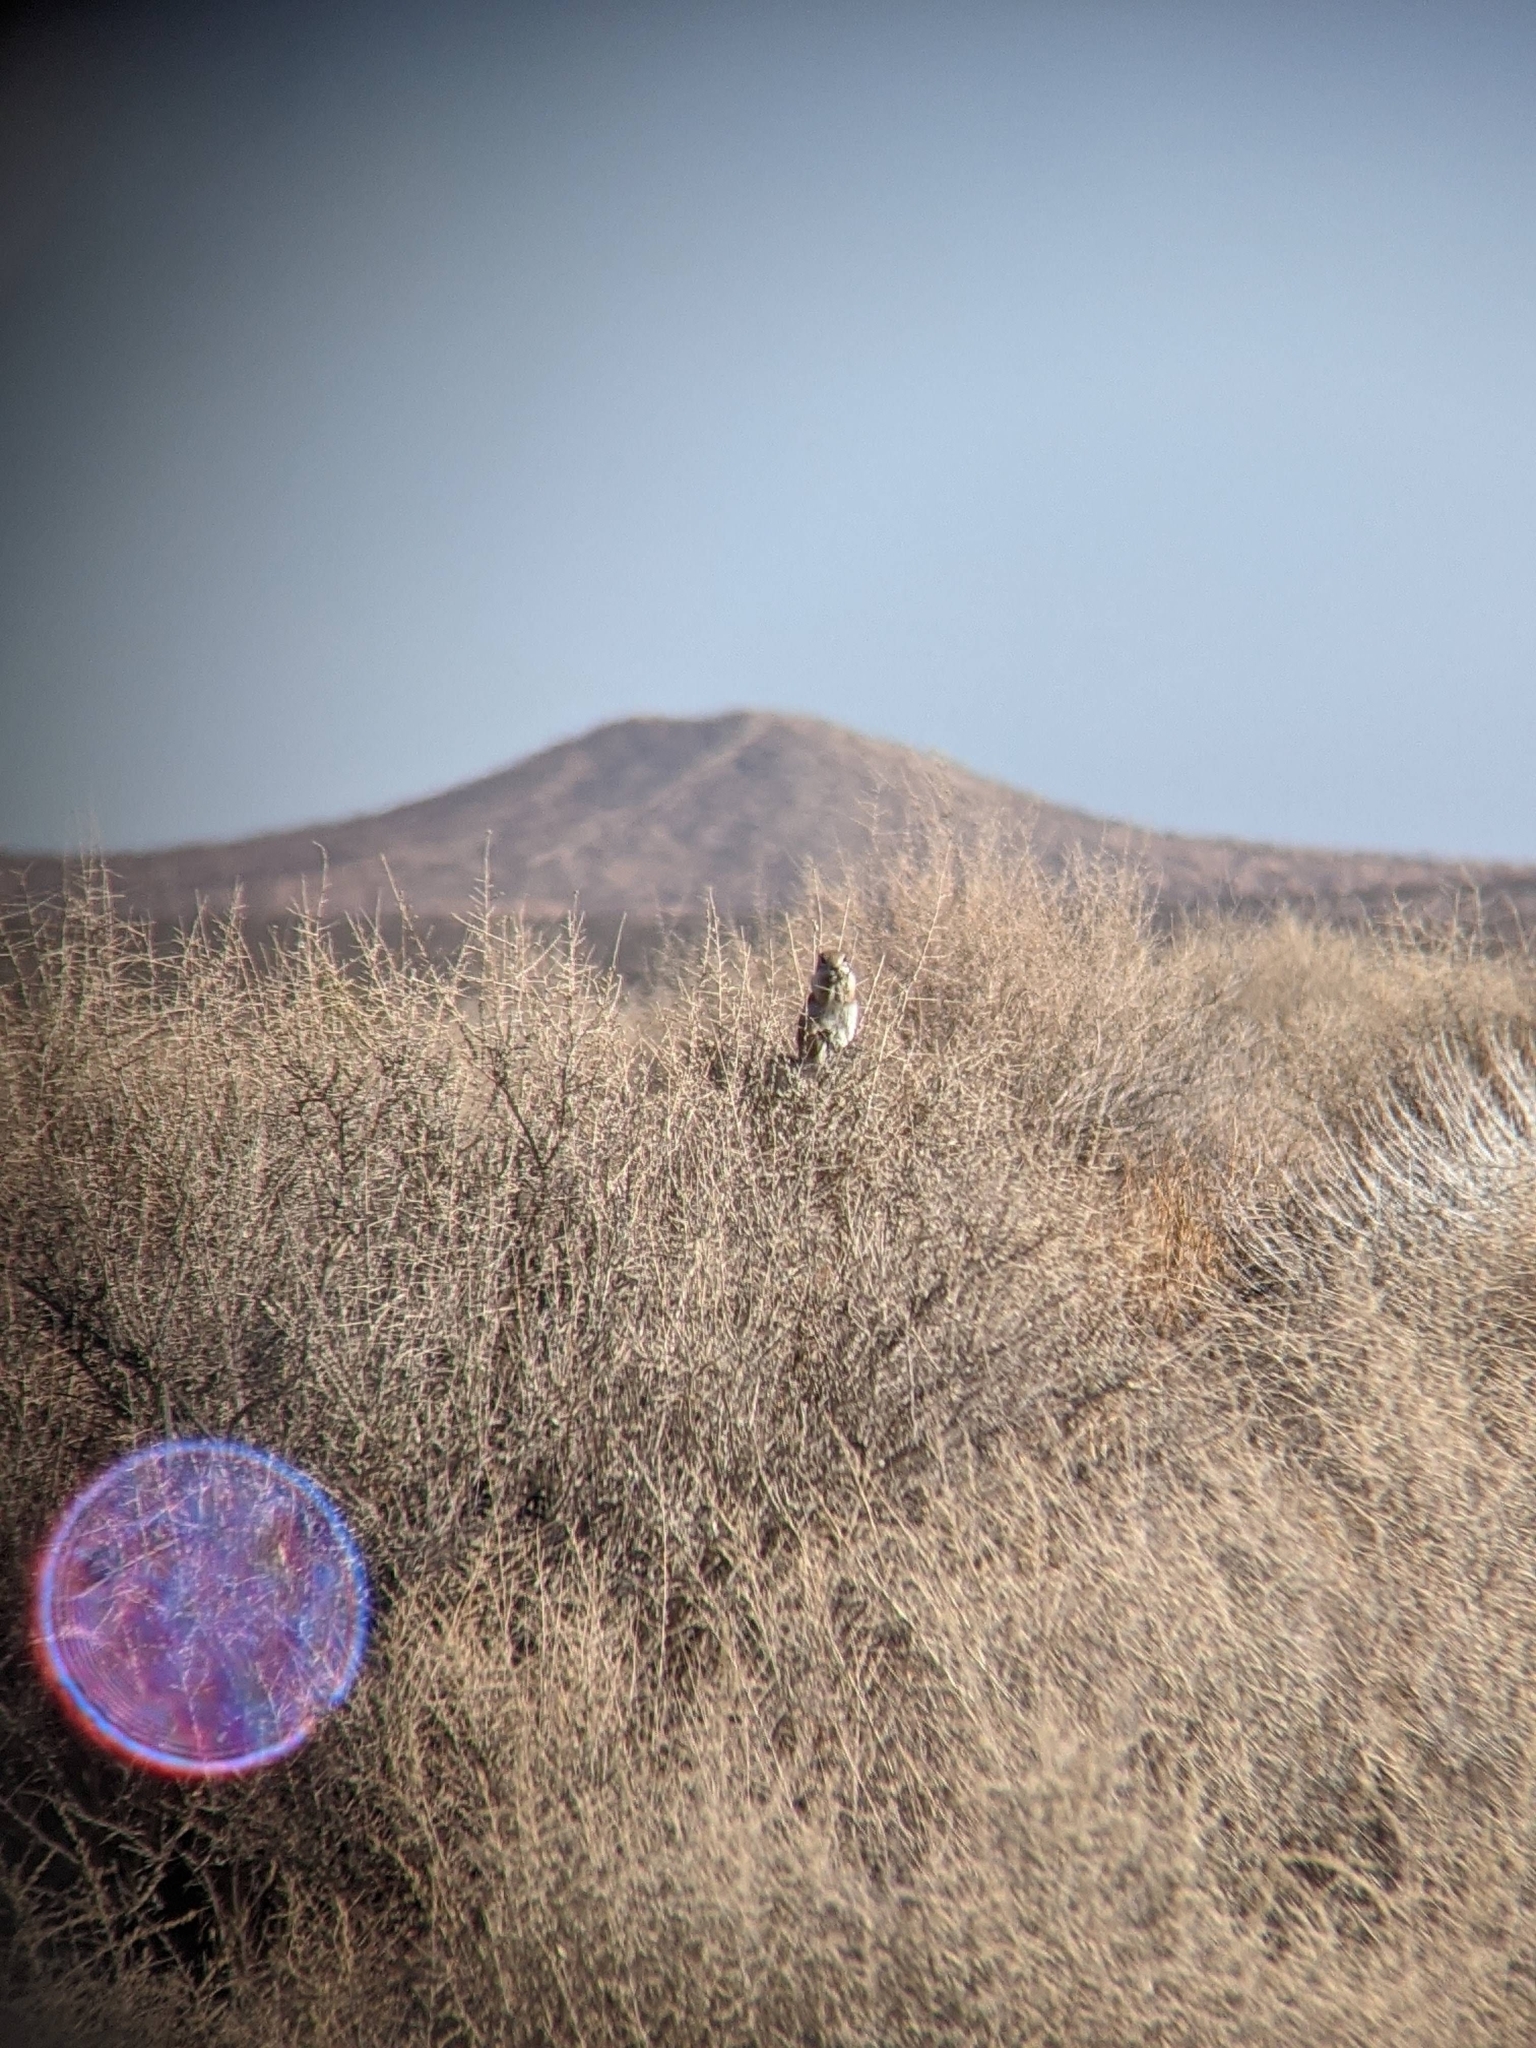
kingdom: Animalia
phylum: Chordata
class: Mammalia
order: Rodentia
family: Sciuridae
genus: Ammospermophilus
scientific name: Ammospermophilus leucurus
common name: White-tailed antelope squirrel
